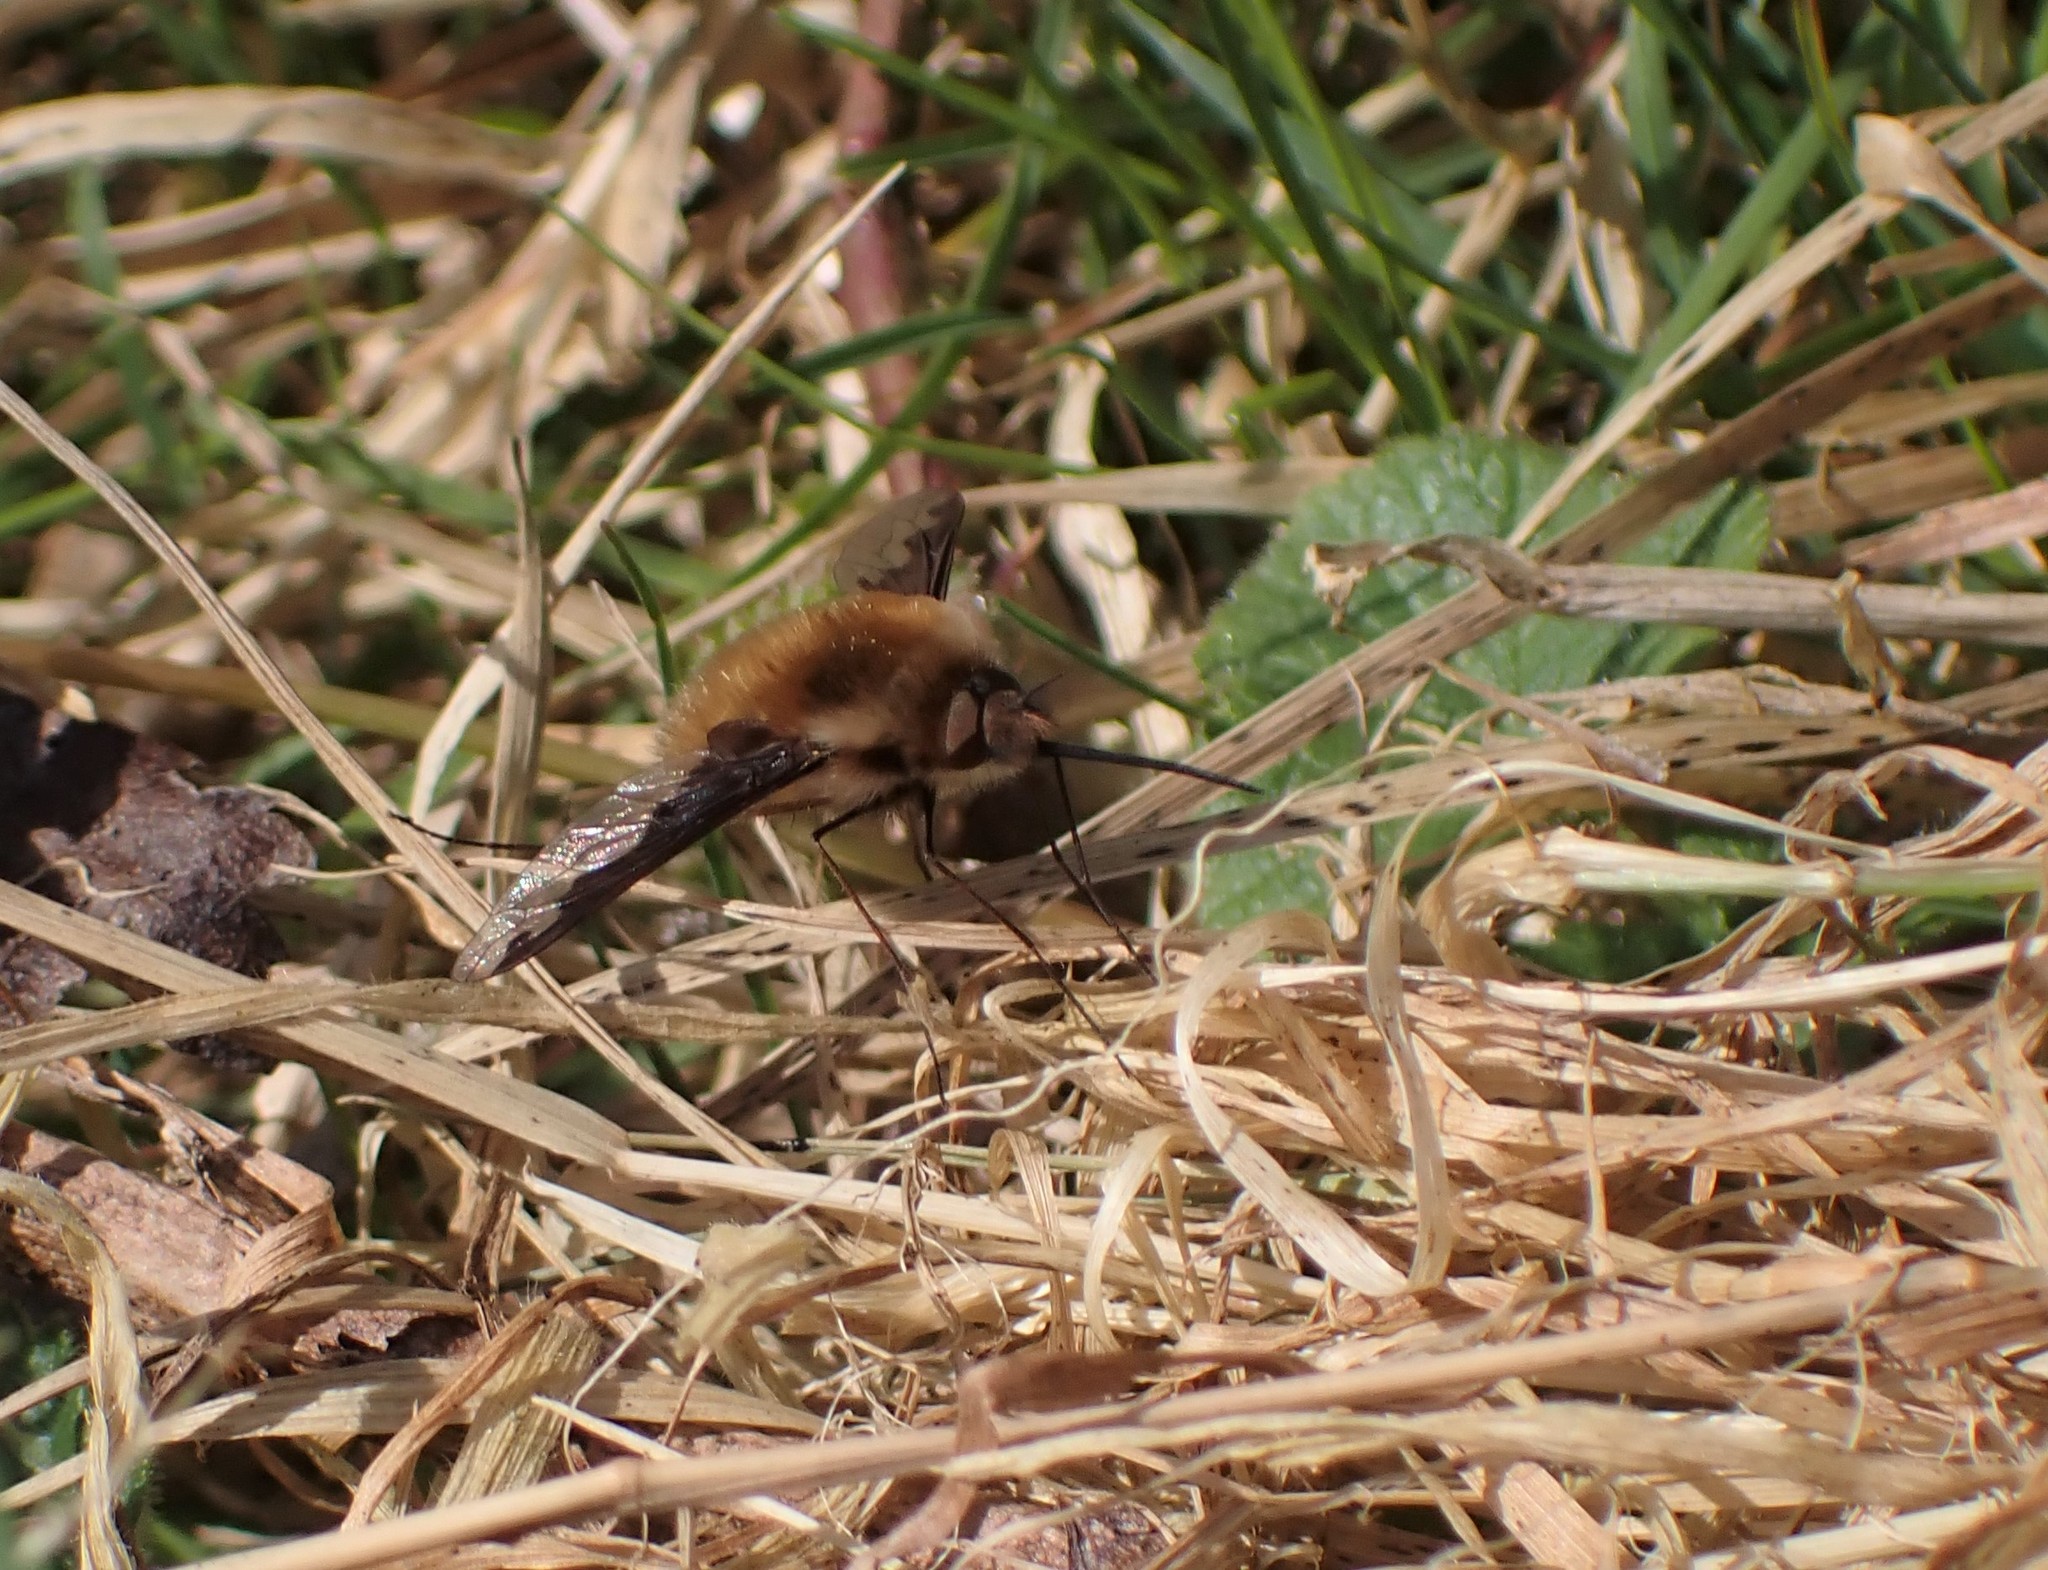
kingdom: Animalia
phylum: Arthropoda
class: Insecta
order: Diptera
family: Bombyliidae
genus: Bombylius
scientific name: Bombylius major
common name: Bee fly
